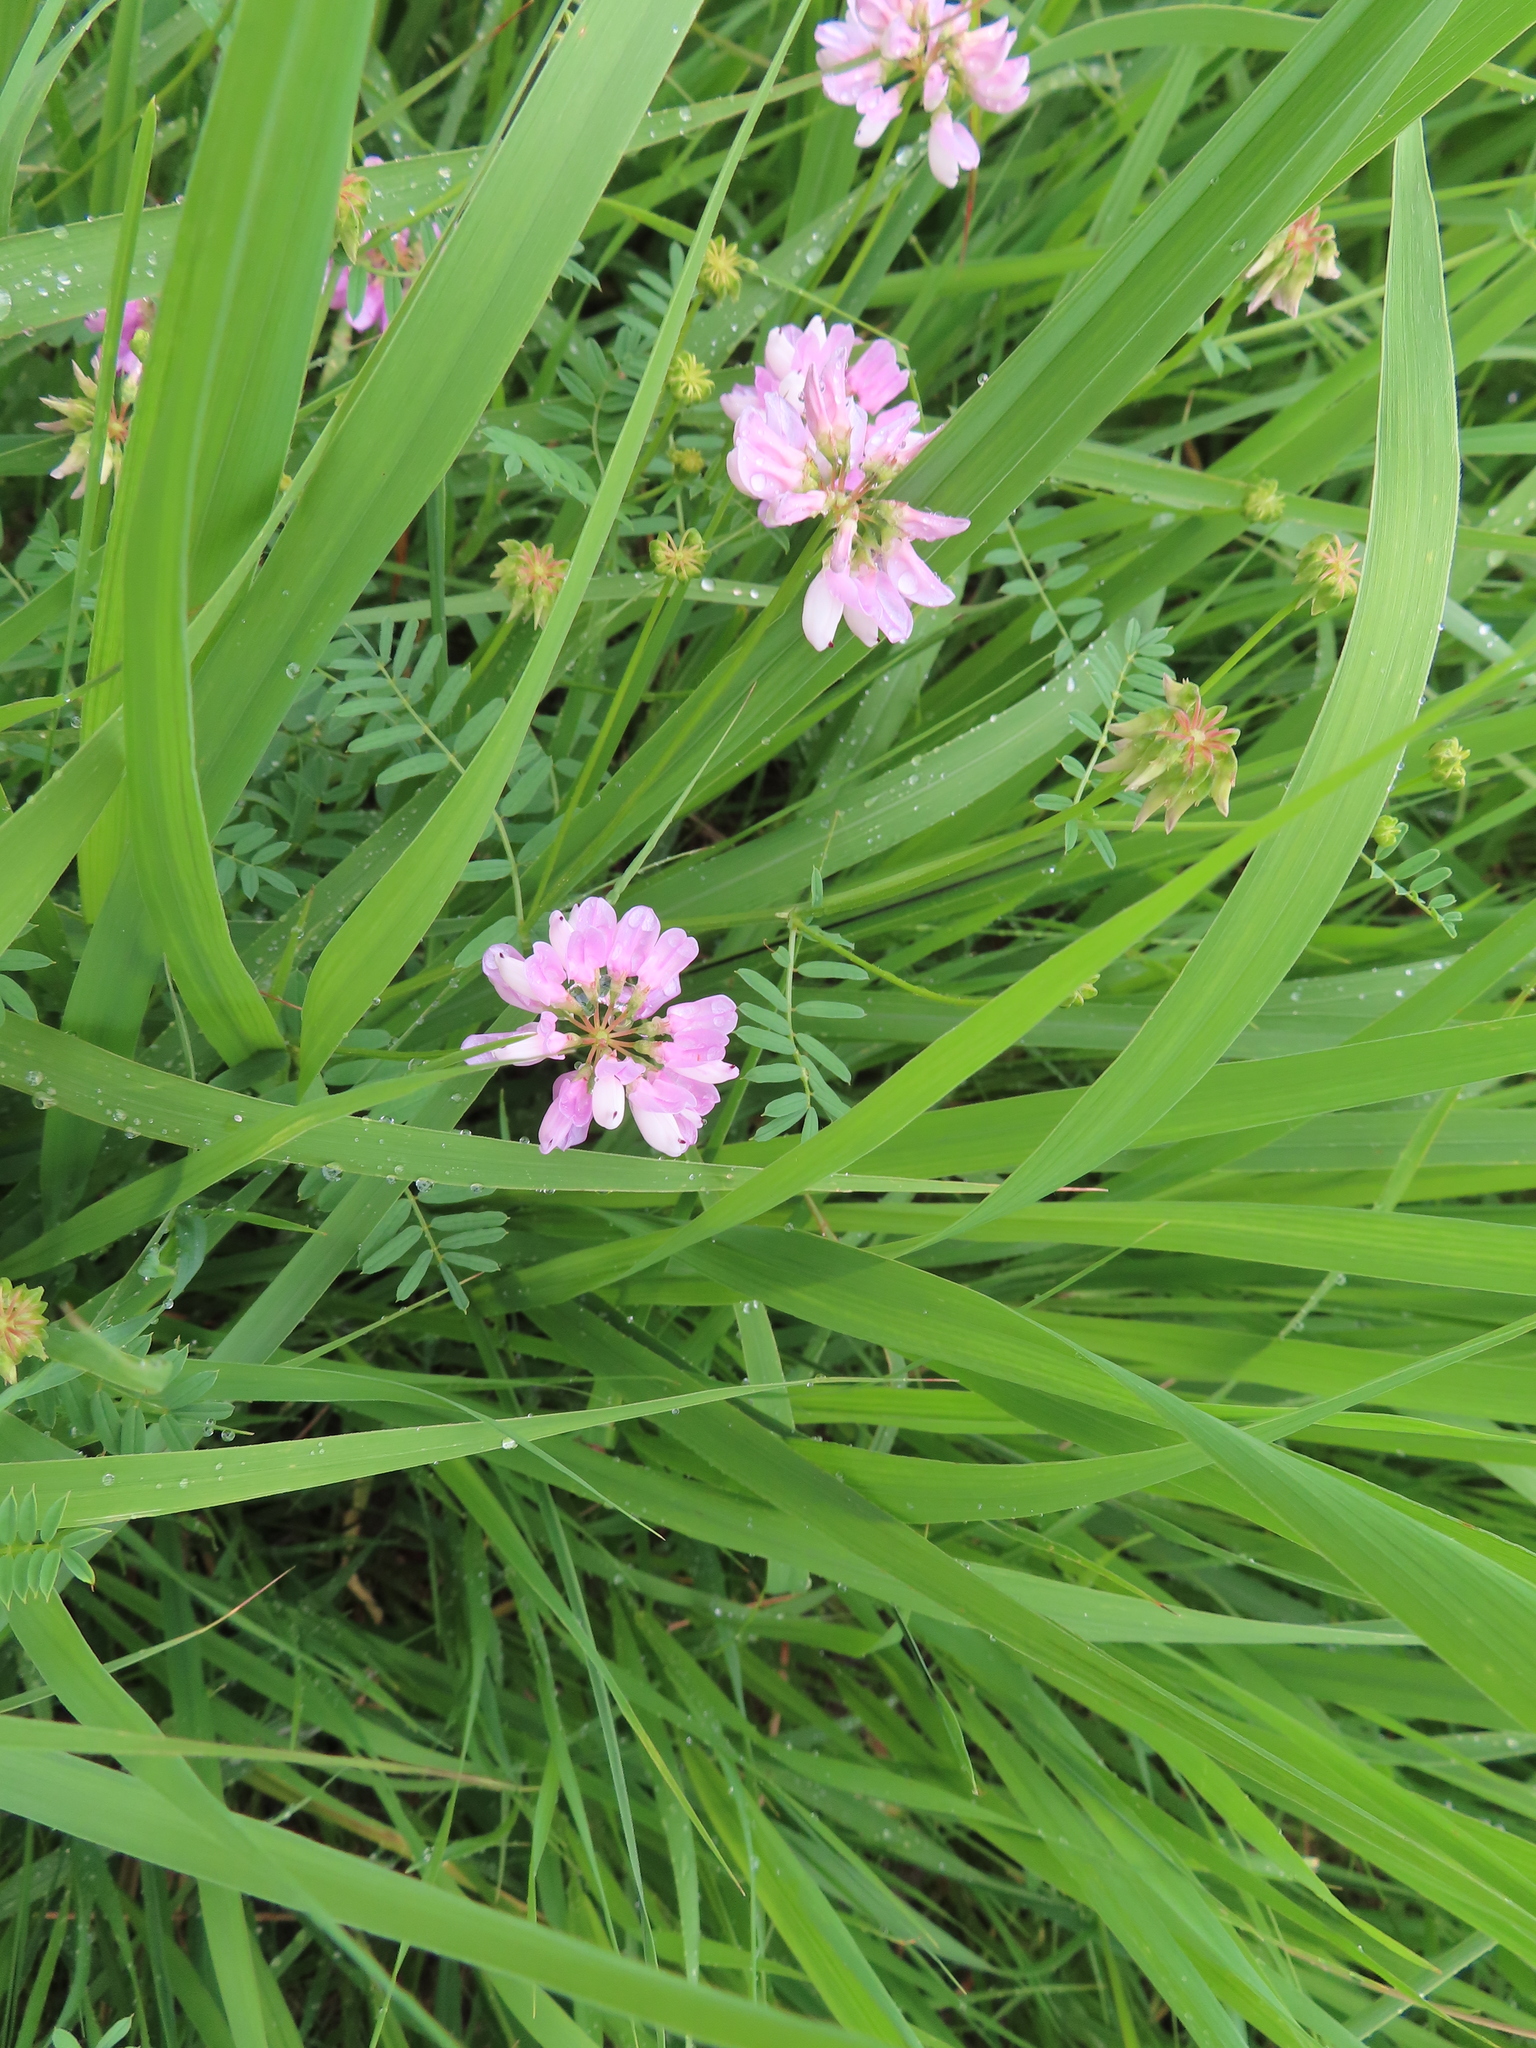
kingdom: Plantae
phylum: Tracheophyta
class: Magnoliopsida
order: Fabales
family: Fabaceae
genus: Coronilla
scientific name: Coronilla varia
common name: Crownvetch
